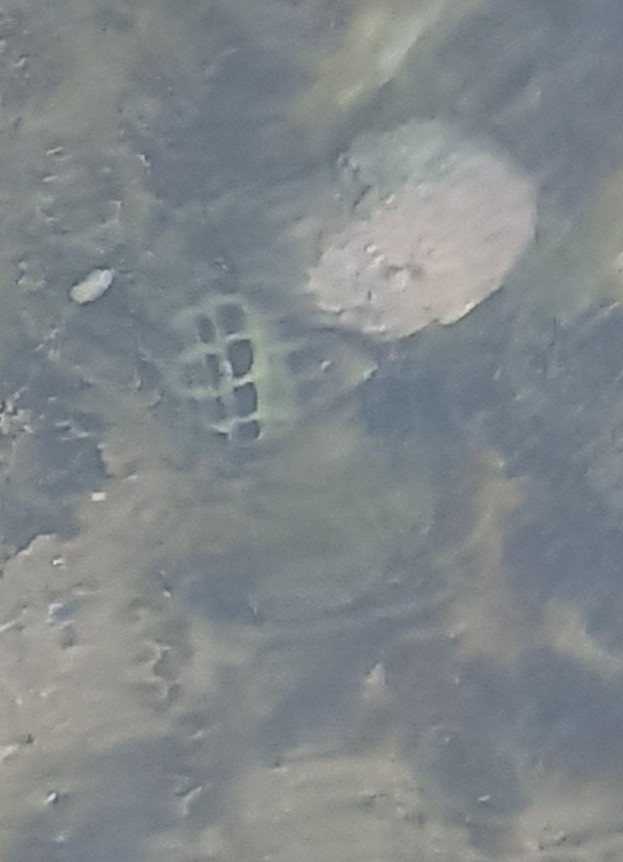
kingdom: Animalia
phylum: Mollusca
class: Gastropoda
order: Neogastropoda
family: Muricidae
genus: Tenguella
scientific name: Tenguella granulata
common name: Granular drupe
